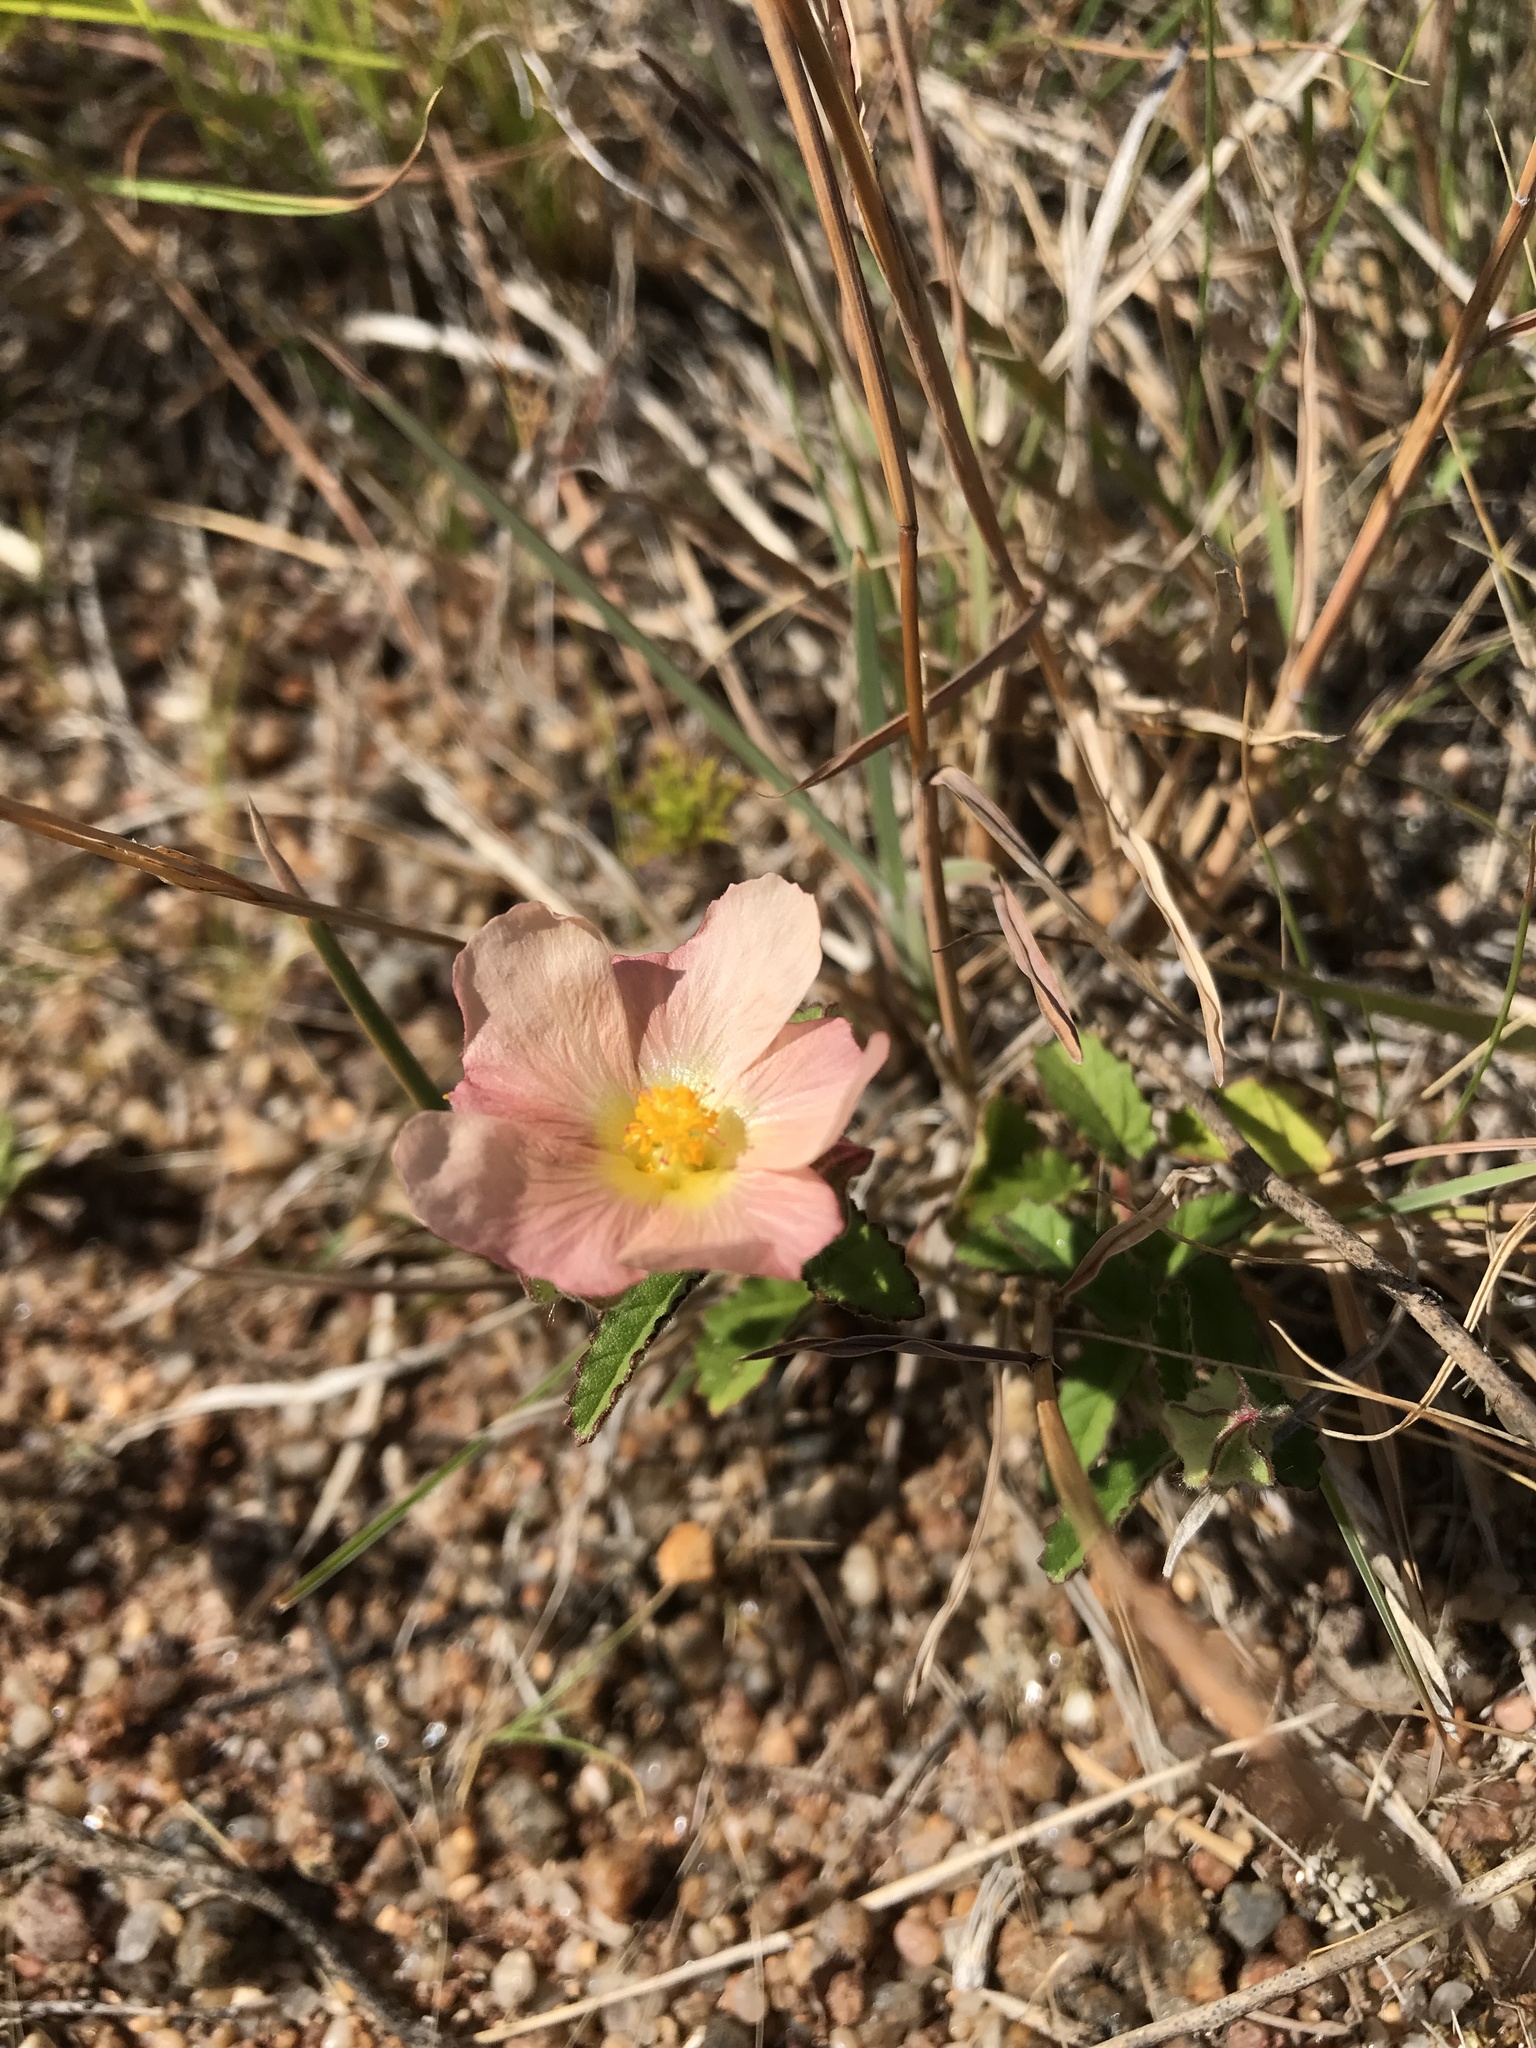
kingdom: Plantae
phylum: Tracheophyta
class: Magnoliopsida
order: Malvales
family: Malvaceae
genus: Sida
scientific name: Sida dubia
